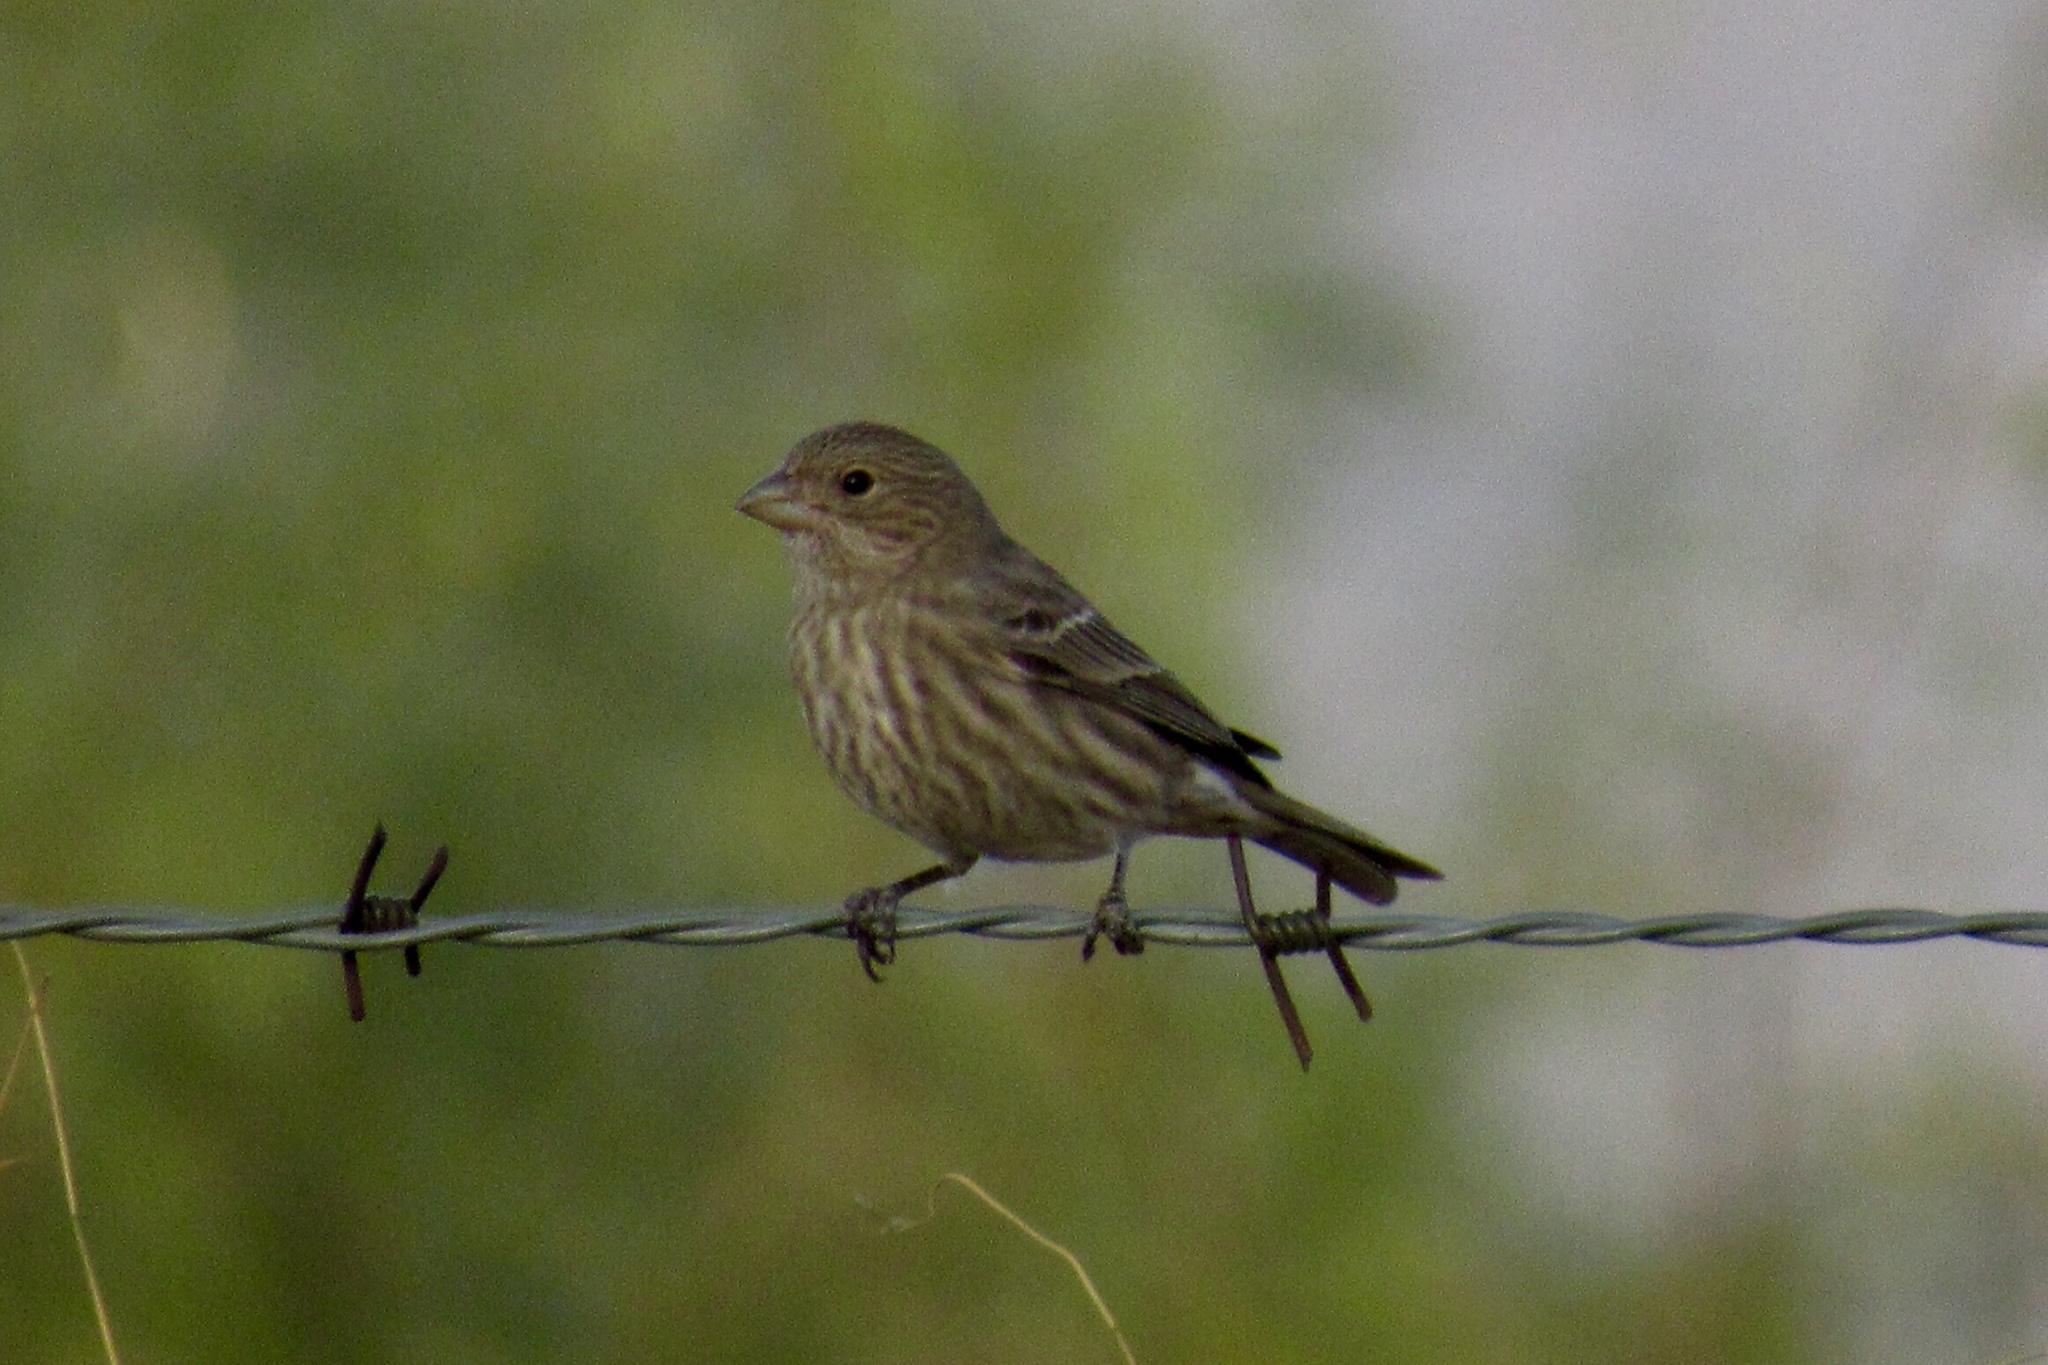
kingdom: Animalia
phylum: Chordata
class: Aves
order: Passeriformes
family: Fringillidae
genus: Haemorhous
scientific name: Haemorhous mexicanus
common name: House finch
